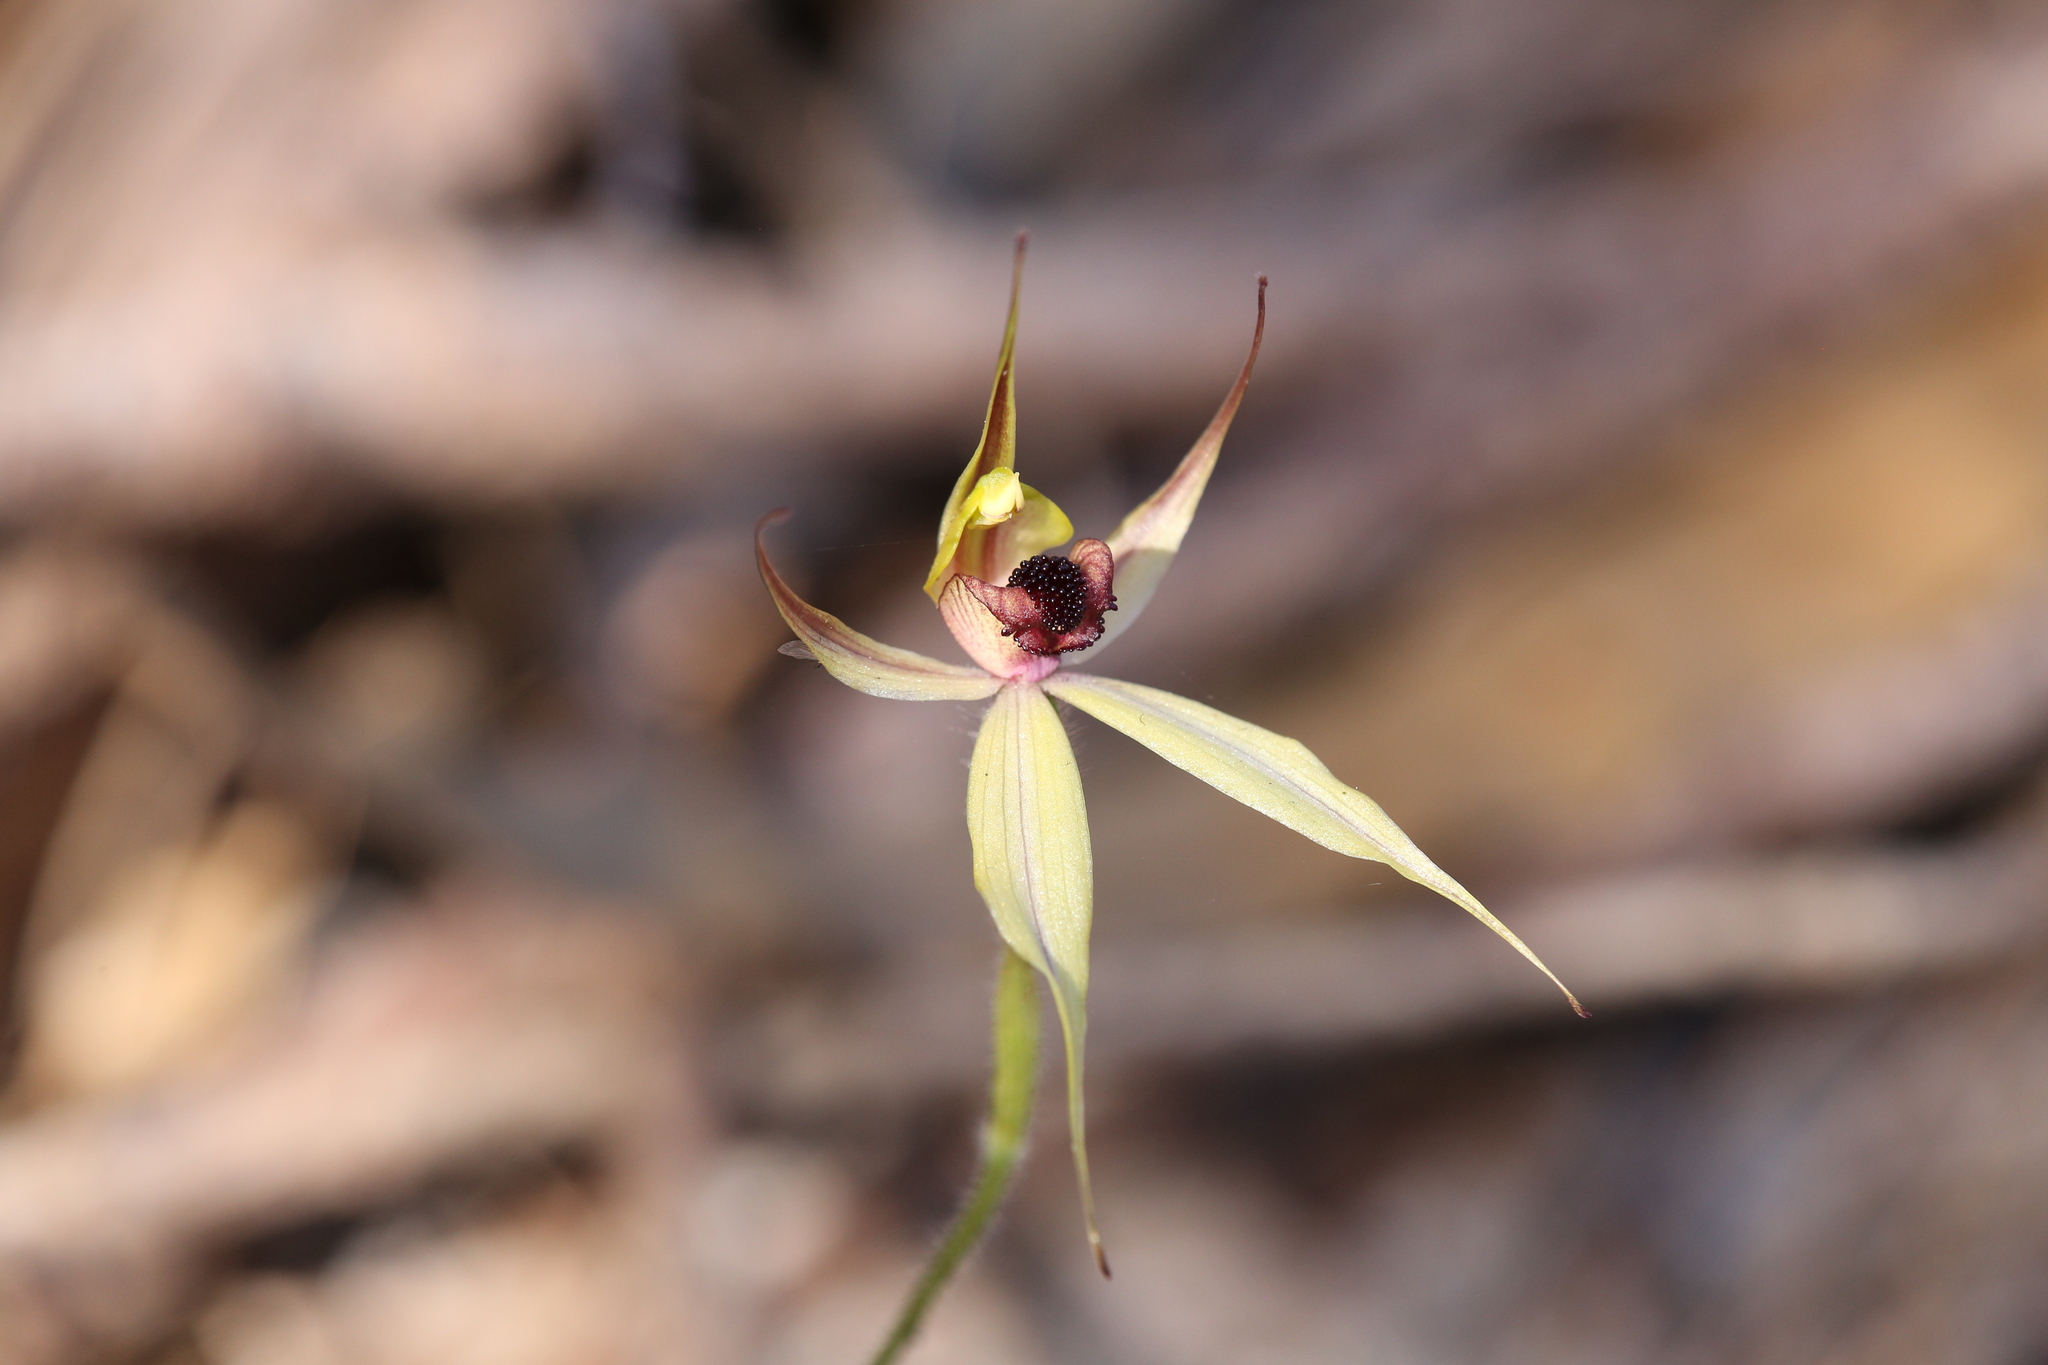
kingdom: Plantae
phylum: Tracheophyta
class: Liliopsida
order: Asparagales
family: Orchidaceae
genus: Caladenia
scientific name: Caladenia macrostylis
